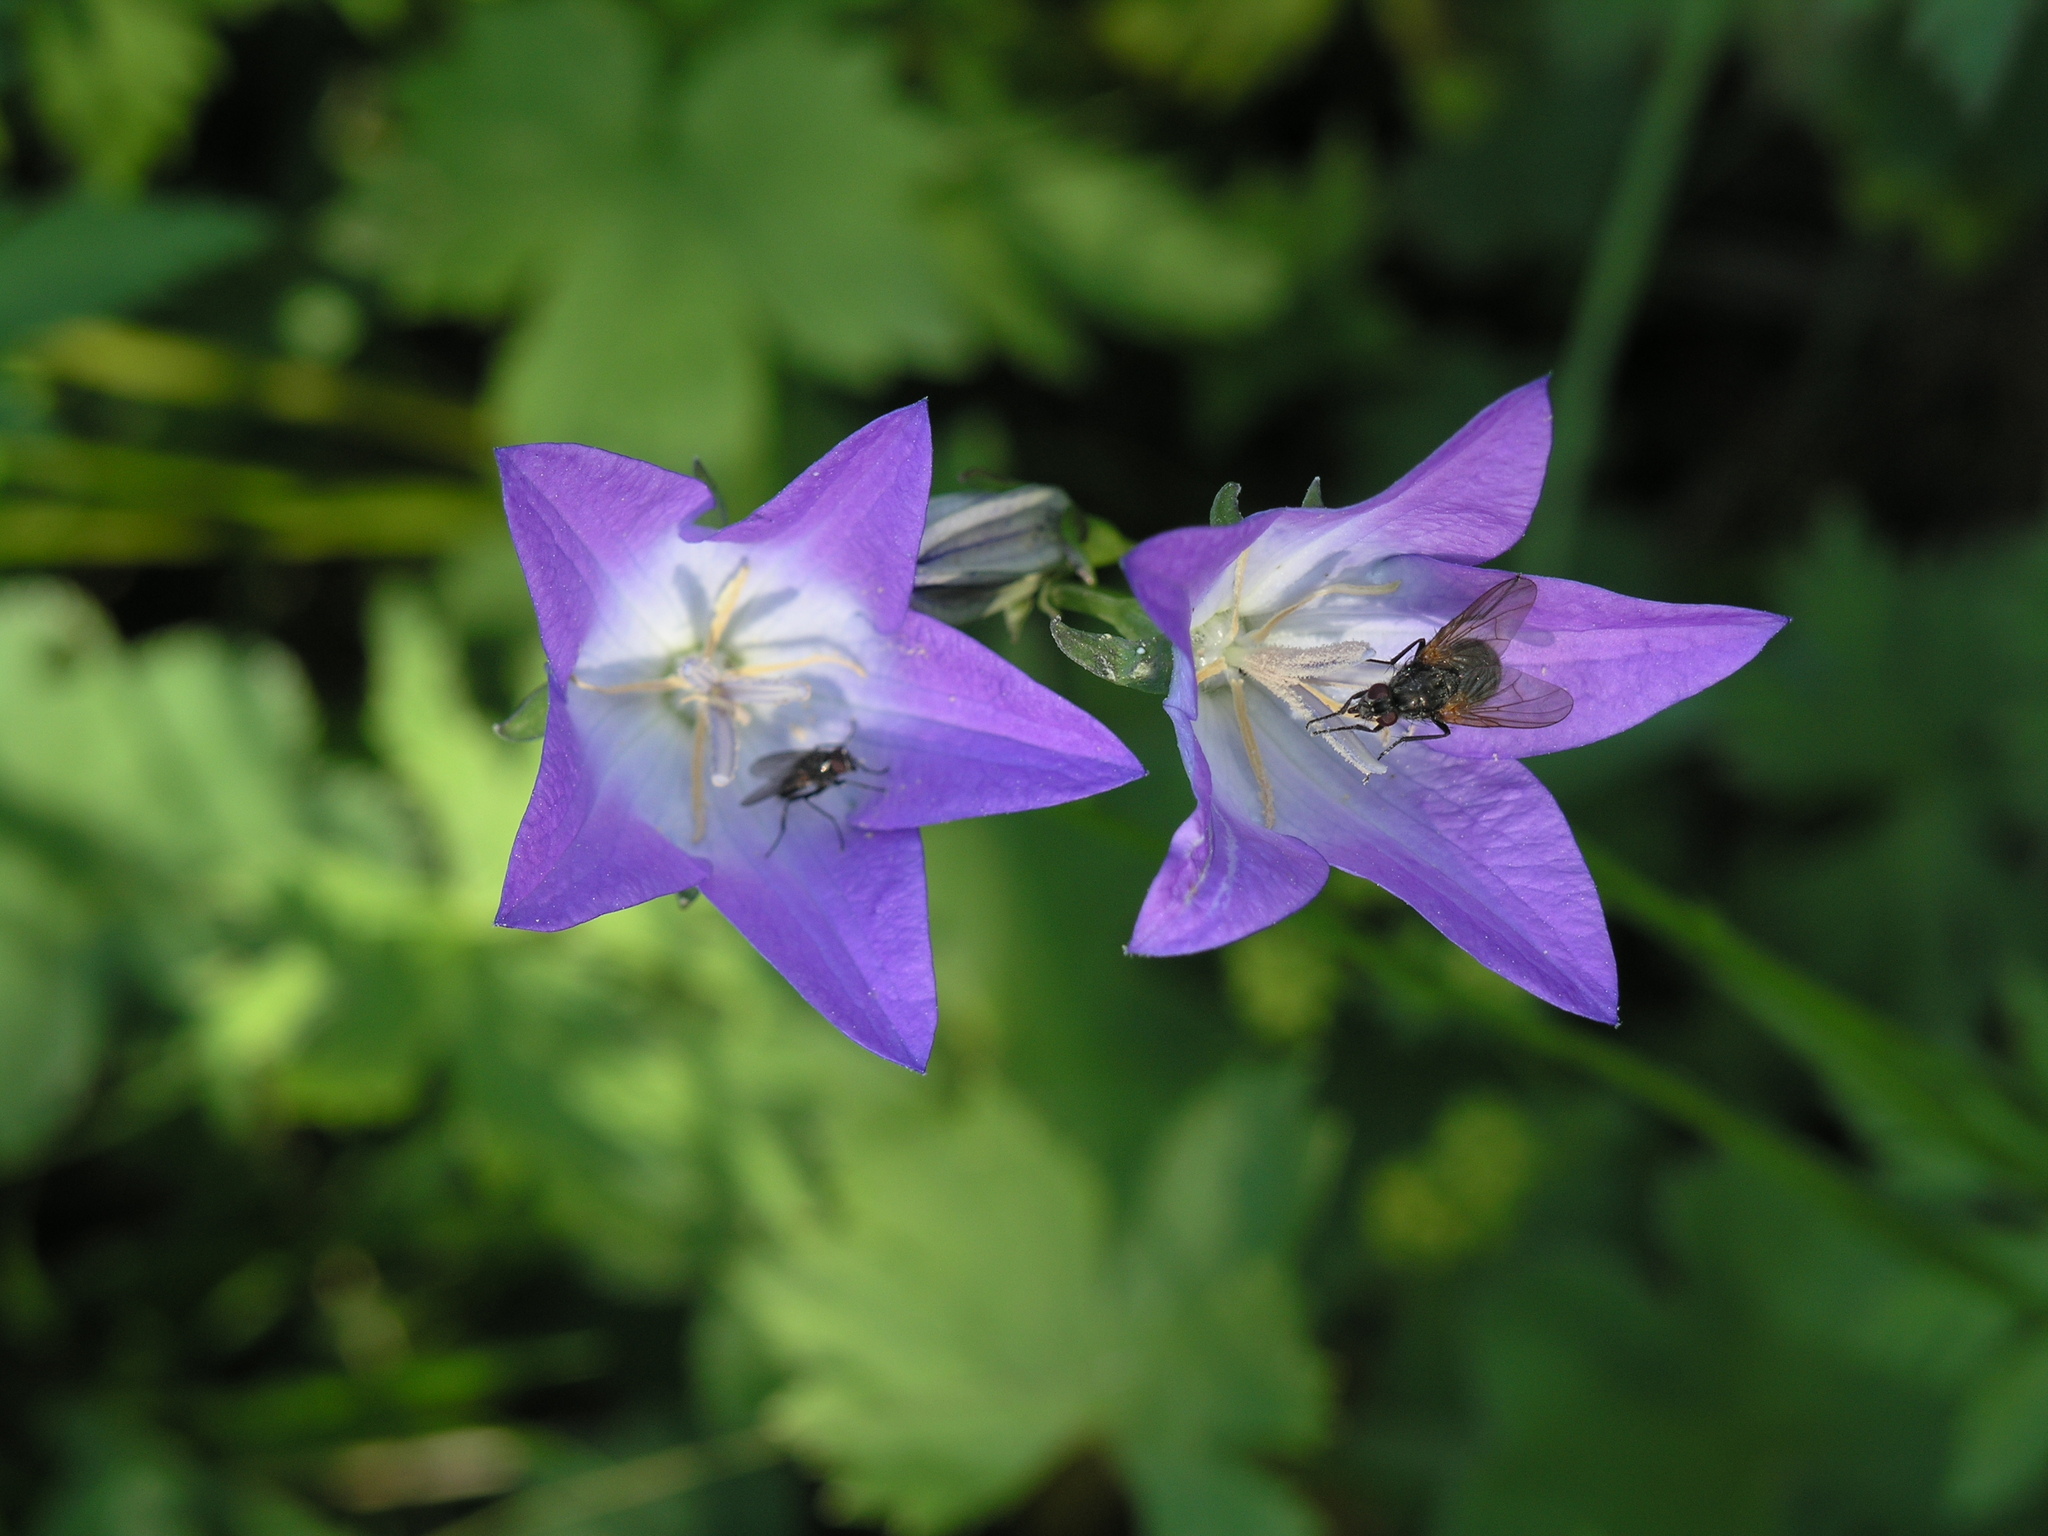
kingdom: Plantae
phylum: Tracheophyta
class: Magnoliopsida
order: Asterales
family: Campanulaceae
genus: Campanula
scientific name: Campanula stevenii
